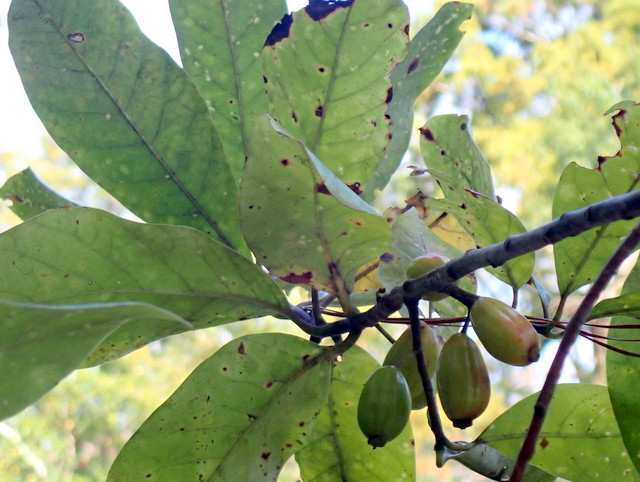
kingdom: Plantae
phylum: Tracheophyta
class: Magnoliopsida
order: Cornales
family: Nyssaceae
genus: Nyssa
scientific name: Nyssa ogeche
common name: Ogeechee tupelo
